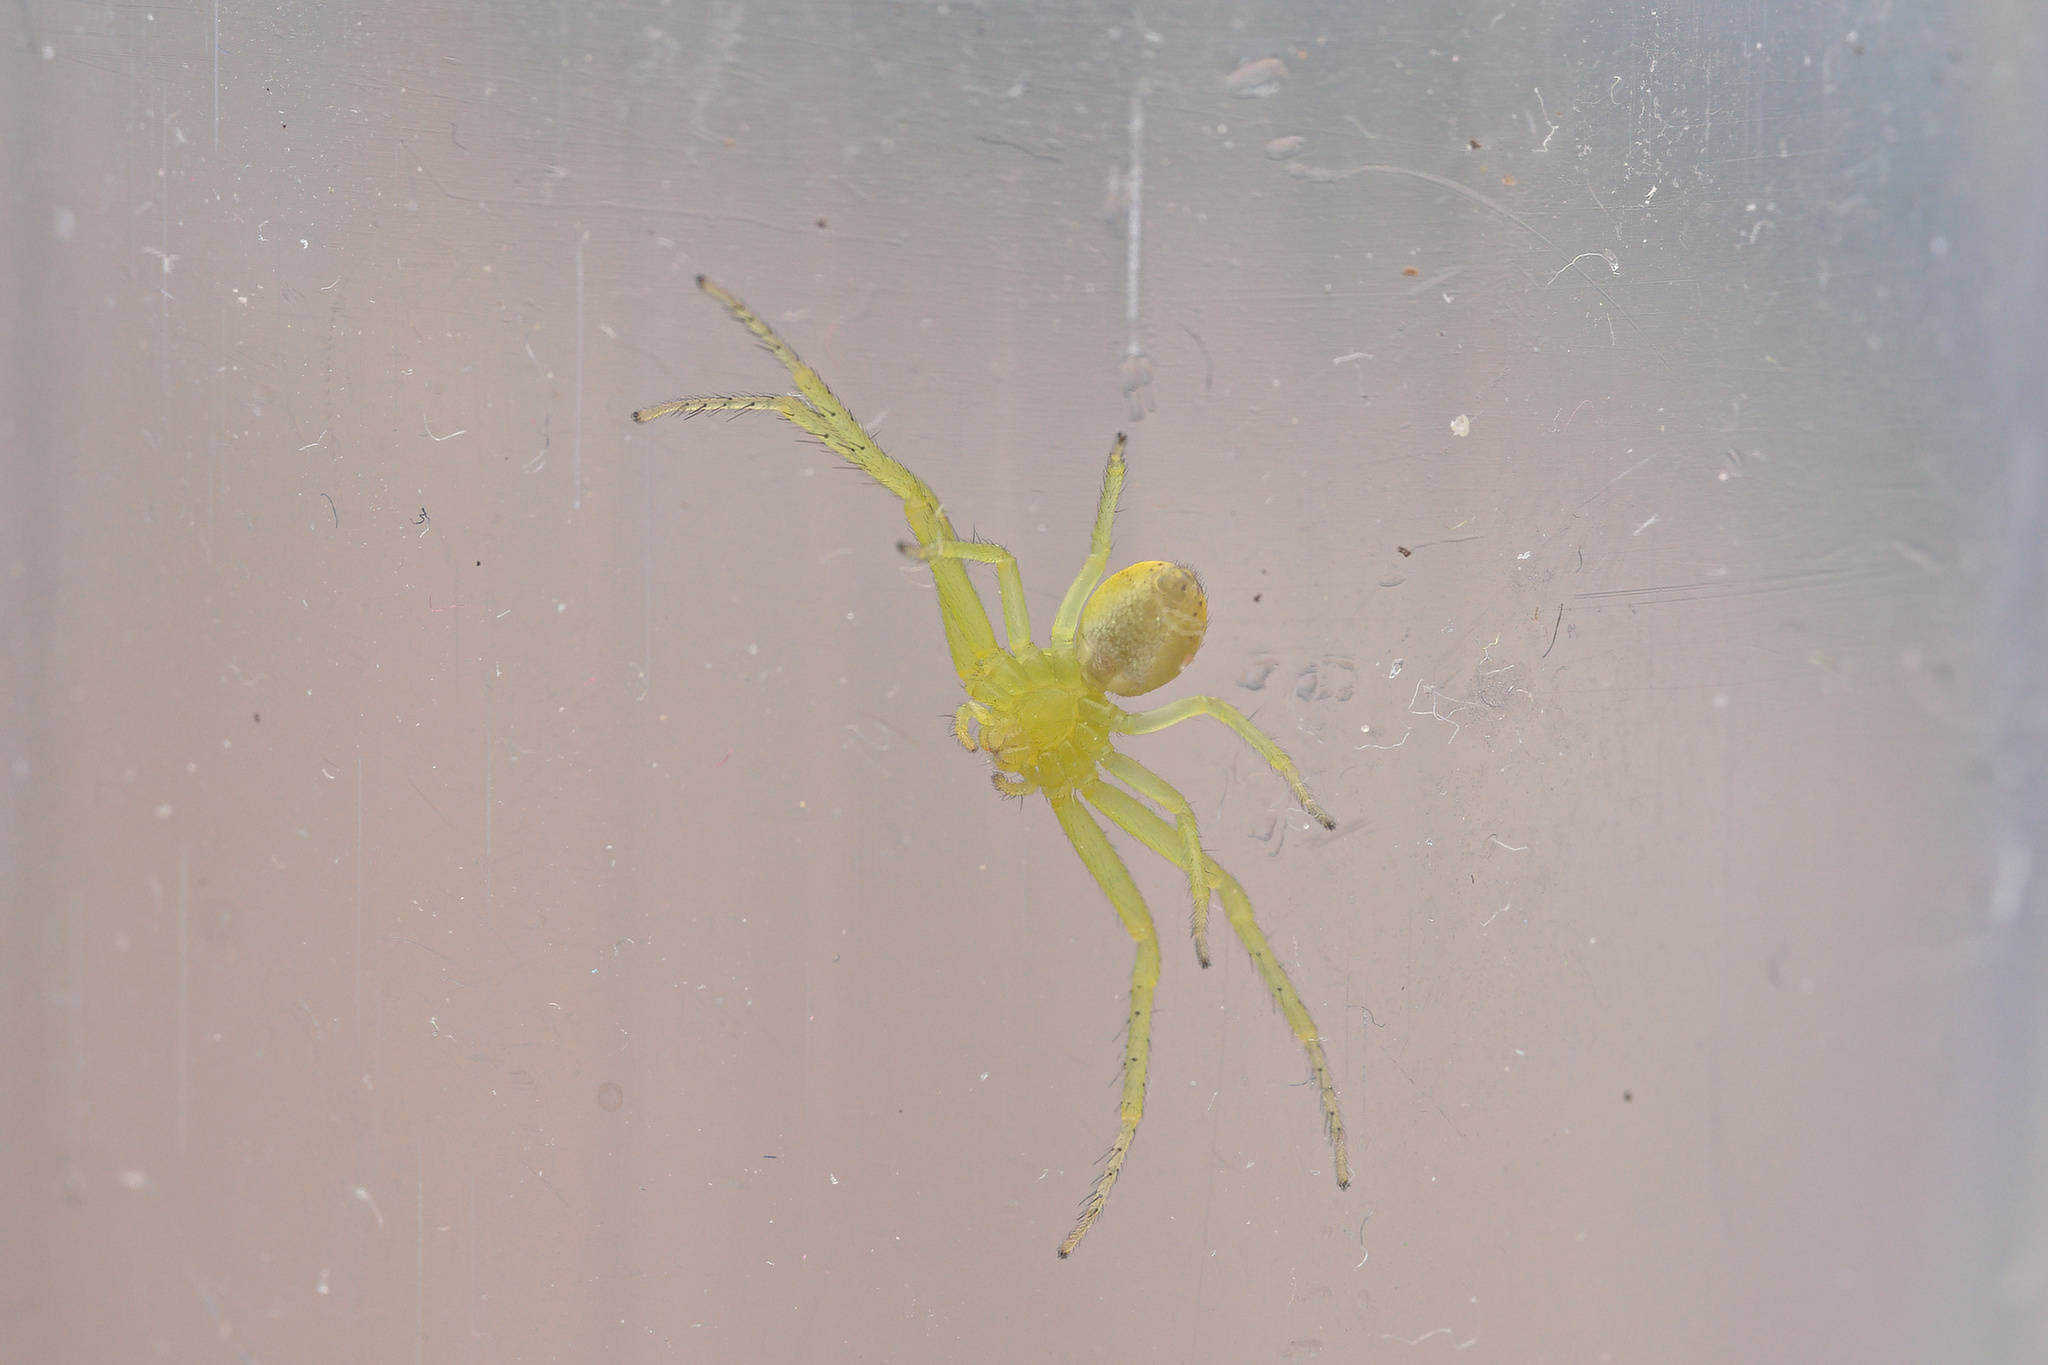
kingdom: Animalia
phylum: Arthropoda
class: Arachnida
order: Araneae
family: Thomisidae
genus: Diaea
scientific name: Diaea dorsata
